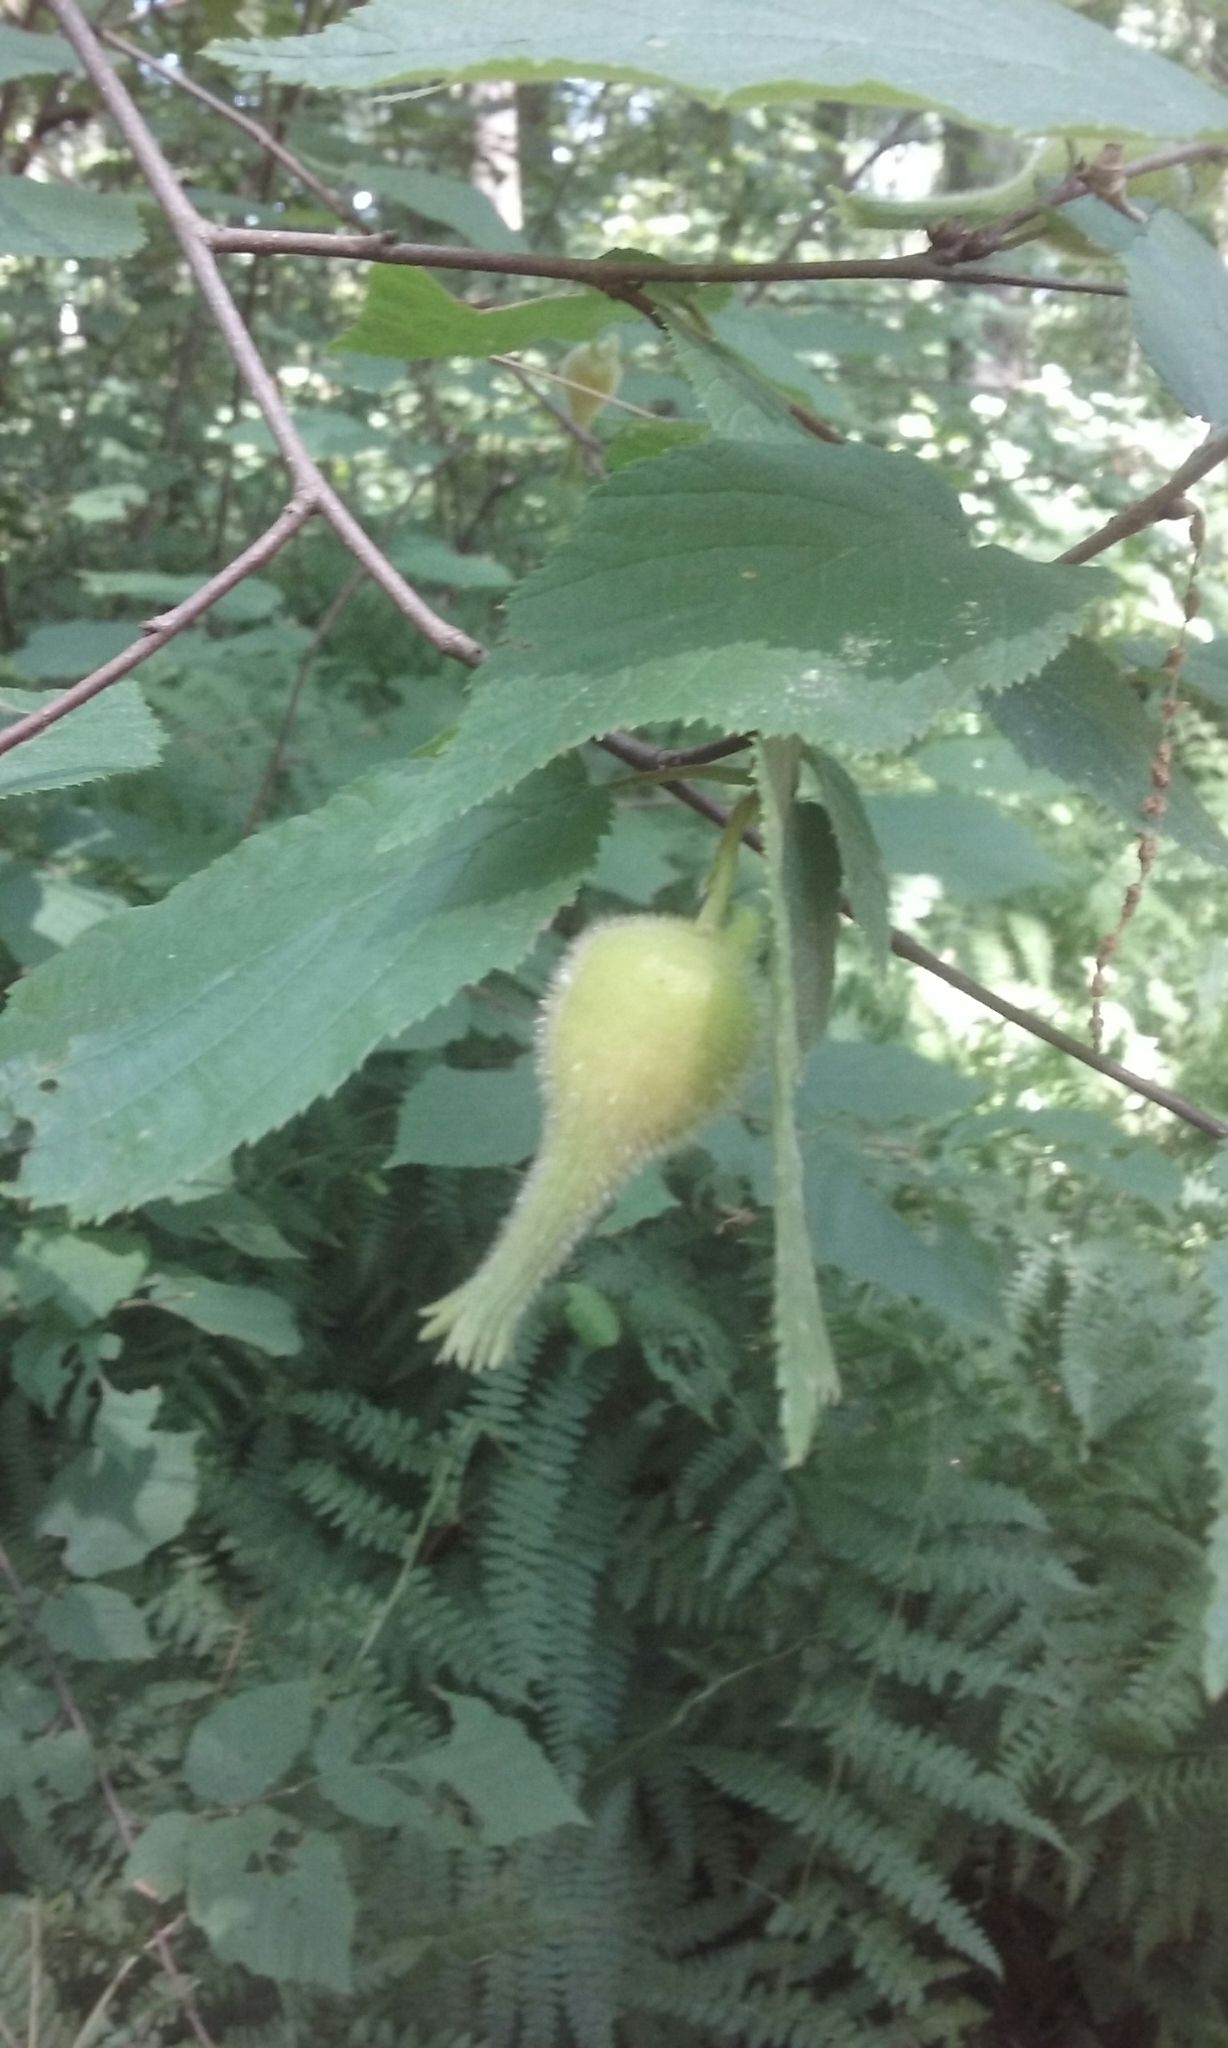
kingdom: Plantae
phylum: Tracheophyta
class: Magnoliopsida
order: Fagales
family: Betulaceae
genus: Corylus
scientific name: Corylus cornuta
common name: Beaked hazel
